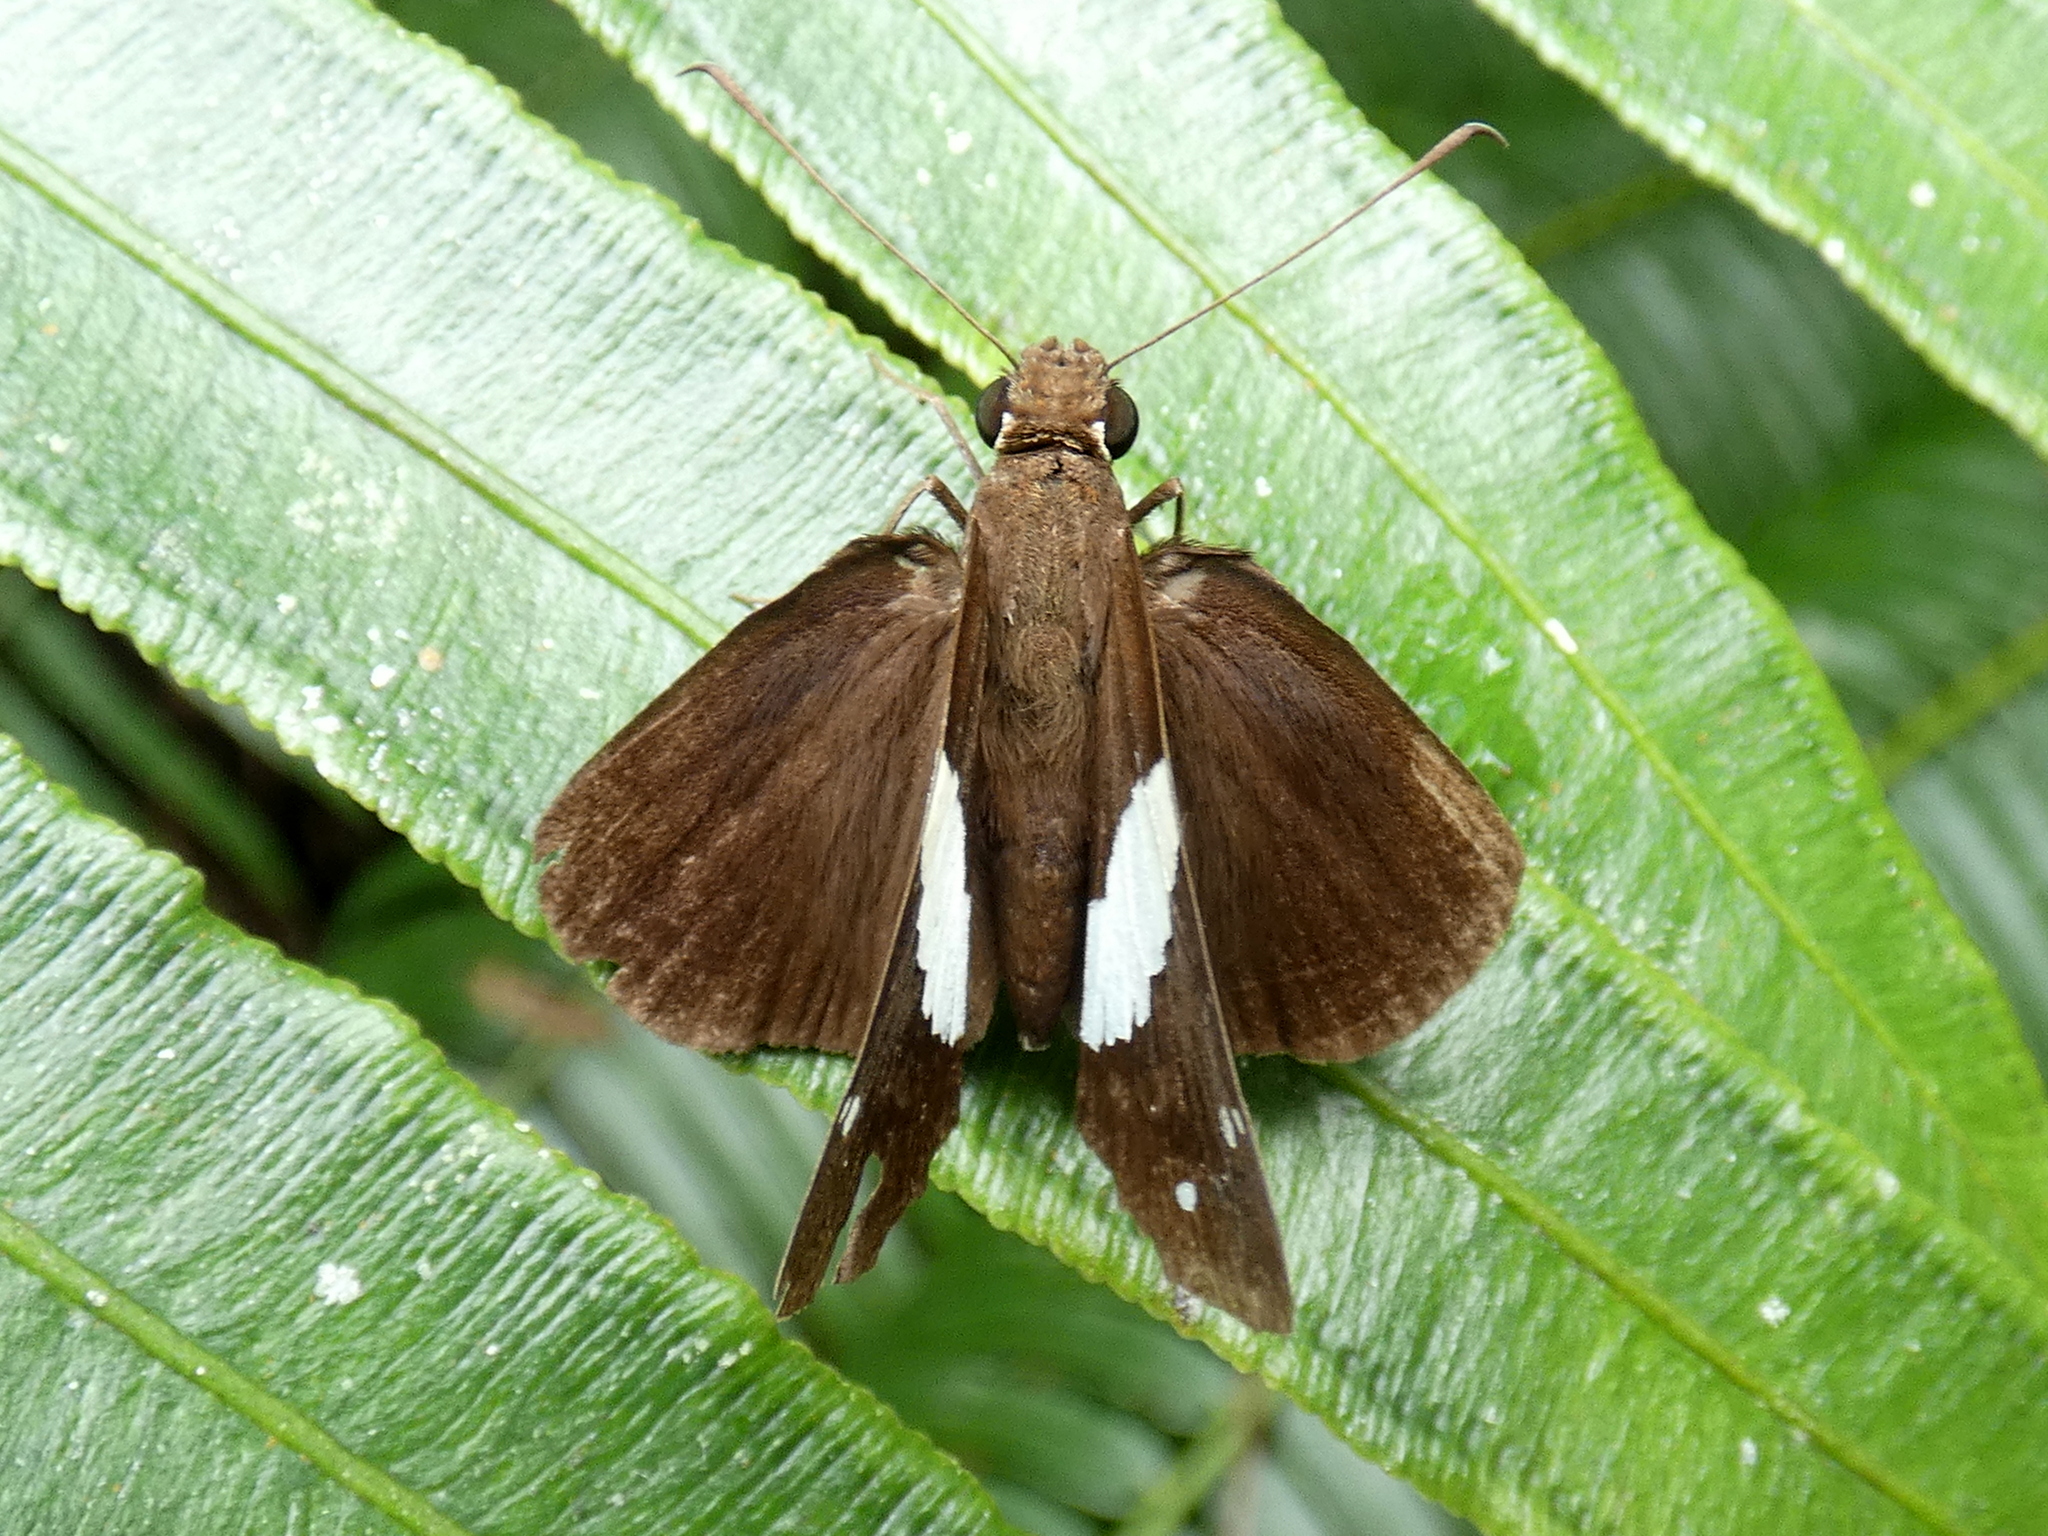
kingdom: Animalia
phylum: Arthropoda
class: Insecta
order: Lepidoptera
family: Hesperiidae
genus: Notocrypta
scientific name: Notocrypta waigensis
